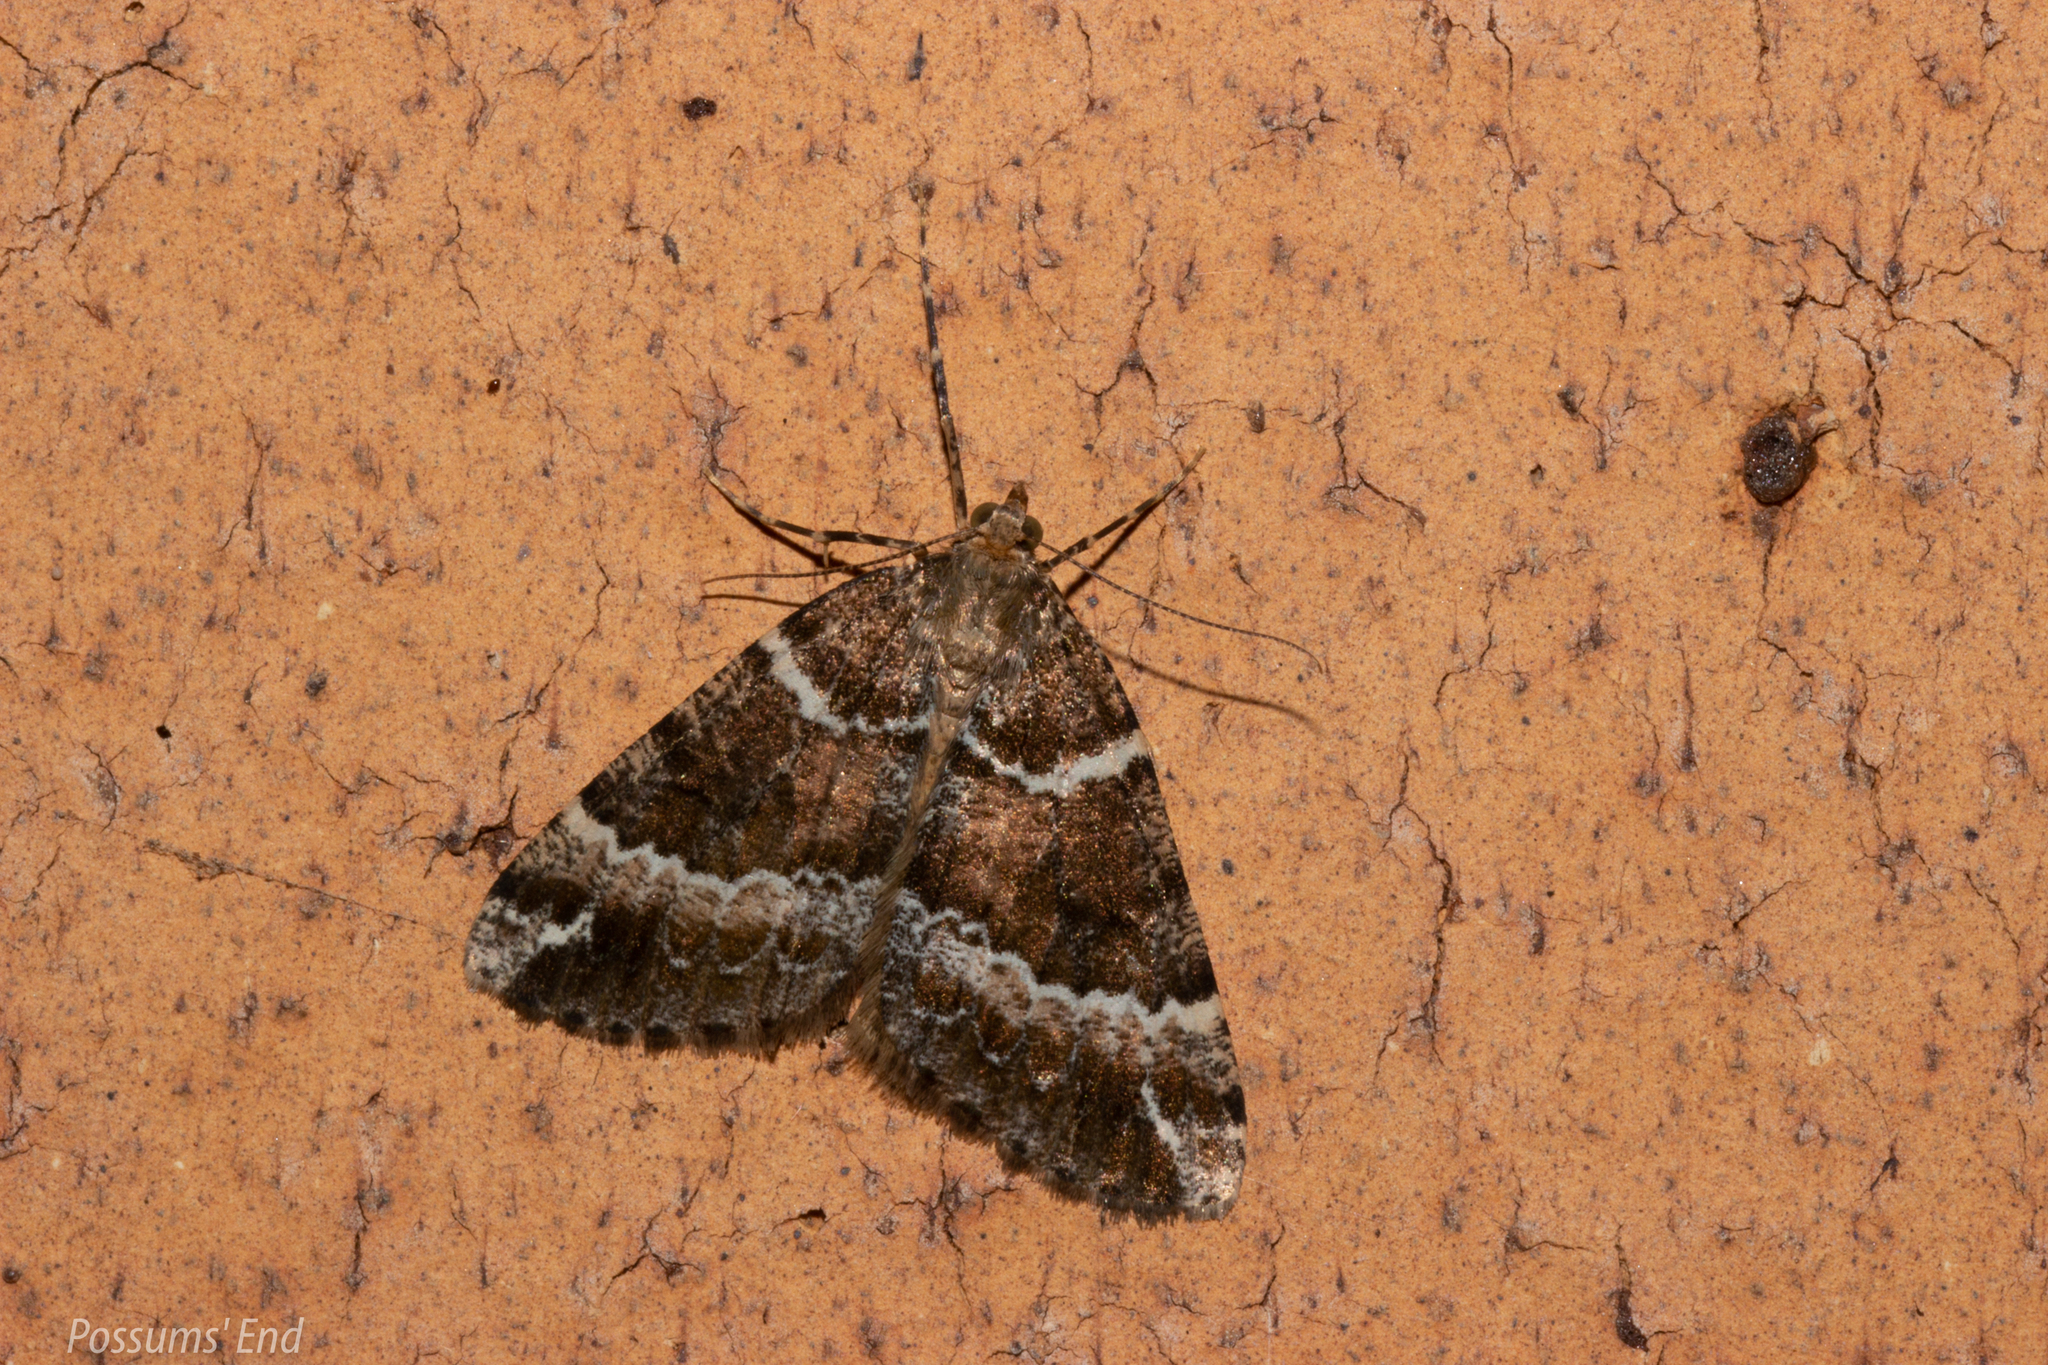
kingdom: Animalia
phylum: Arthropoda
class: Insecta
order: Lepidoptera
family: Geometridae
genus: Pseudocoremia
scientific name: Pseudocoremia
